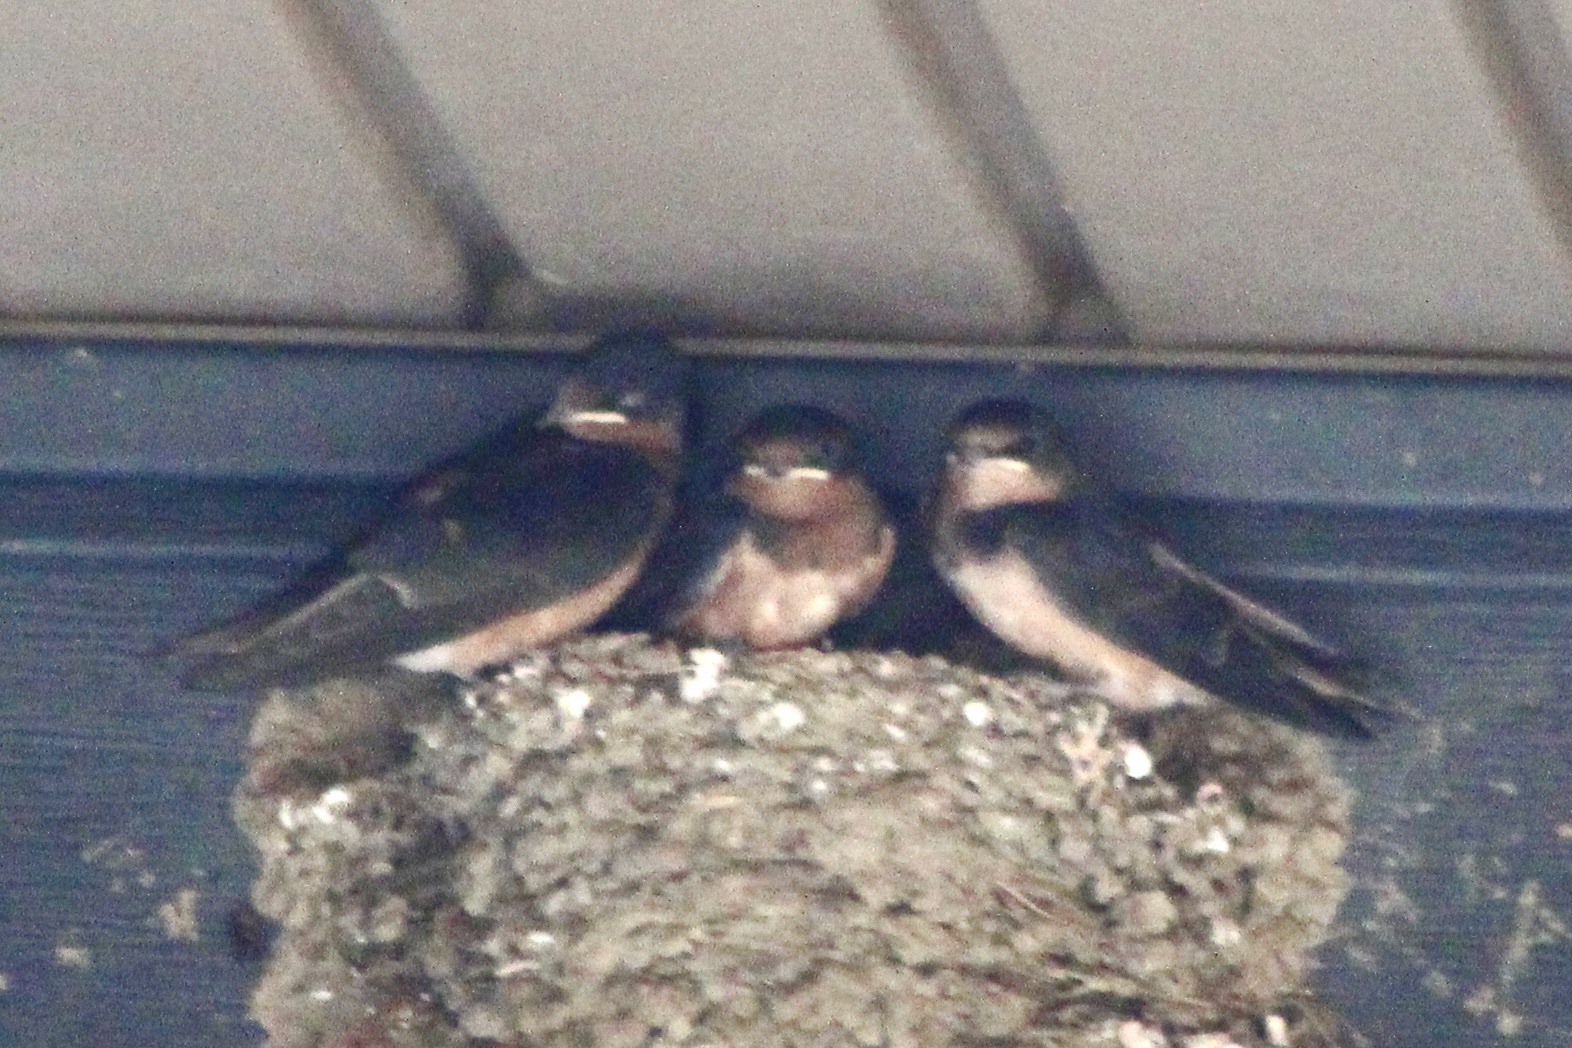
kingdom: Animalia
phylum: Chordata
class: Aves
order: Passeriformes
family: Hirundinidae
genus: Hirundo
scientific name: Hirundo rustica
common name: Barn swallow
